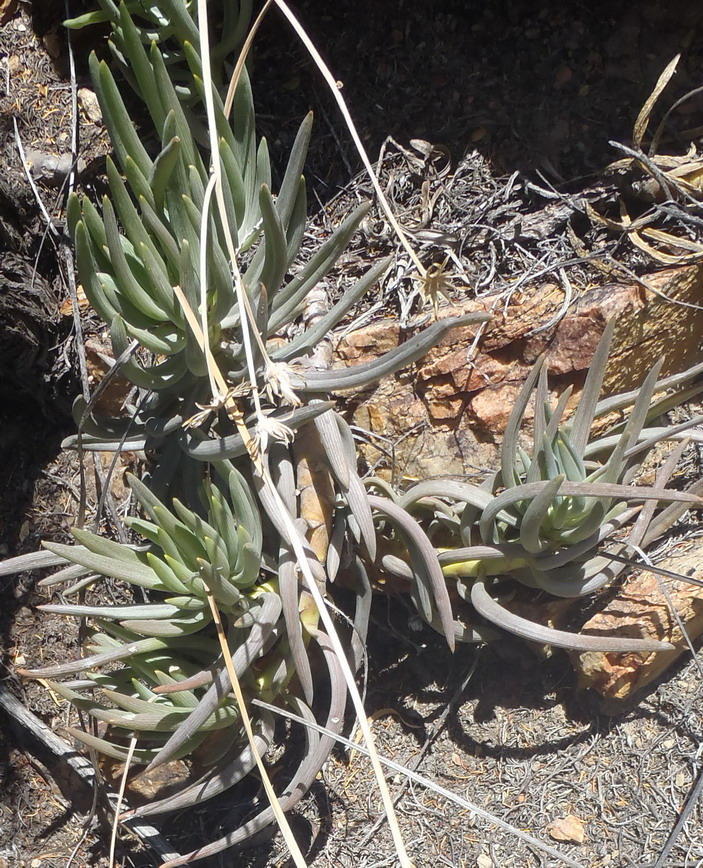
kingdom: Plantae
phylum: Tracheophyta
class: Magnoliopsida
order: Asterales
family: Asteraceae
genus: Curio
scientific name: Curio talinoides
